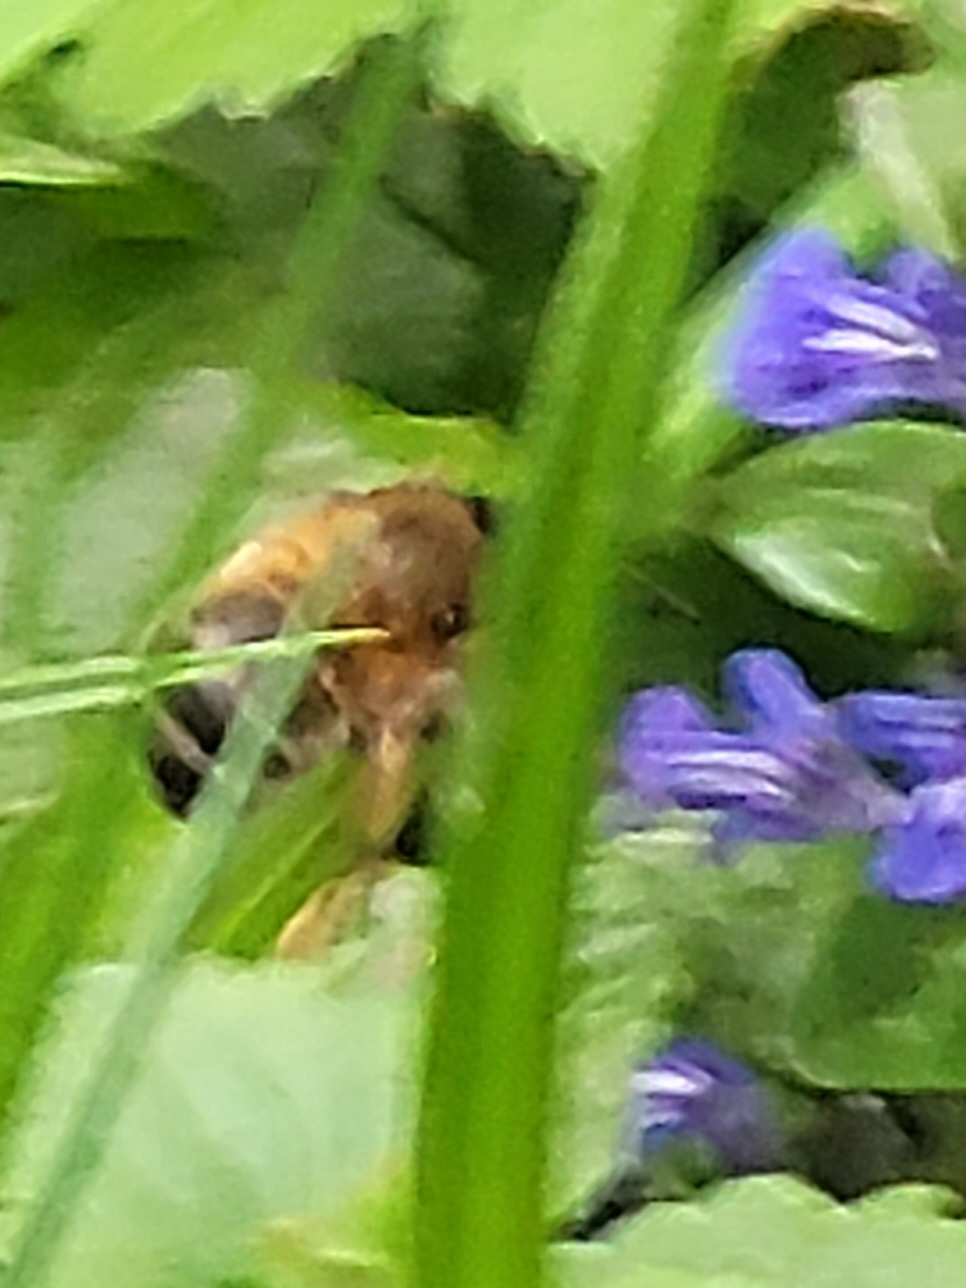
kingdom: Animalia
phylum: Arthropoda
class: Insecta
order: Hymenoptera
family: Apidae
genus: Anthophora
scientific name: Anthophora plumipes
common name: Hairy-footed flower bee
